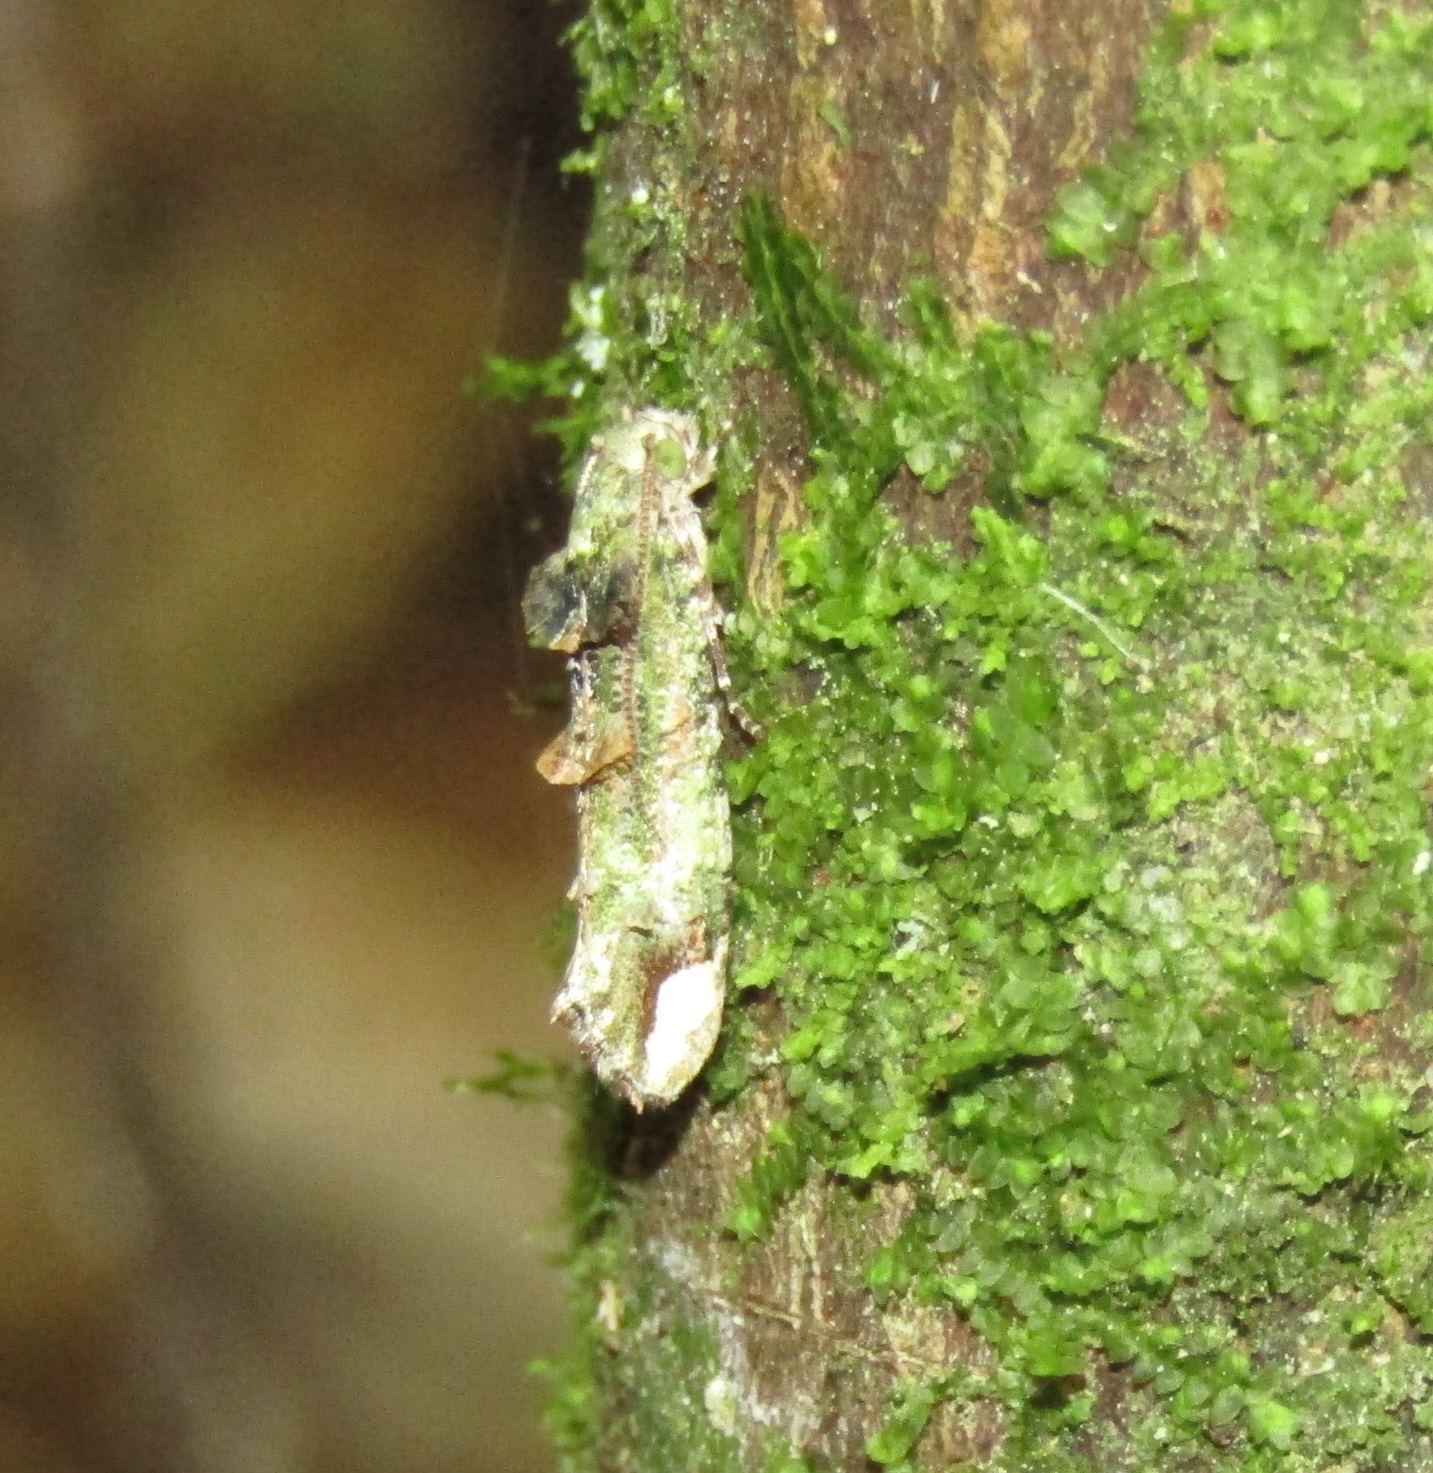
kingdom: Animalia
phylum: Arthropoda
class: Insecta
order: Lepidoptera
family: Tineidae
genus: Lysiphragma
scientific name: Lysiphragma mixochlora
